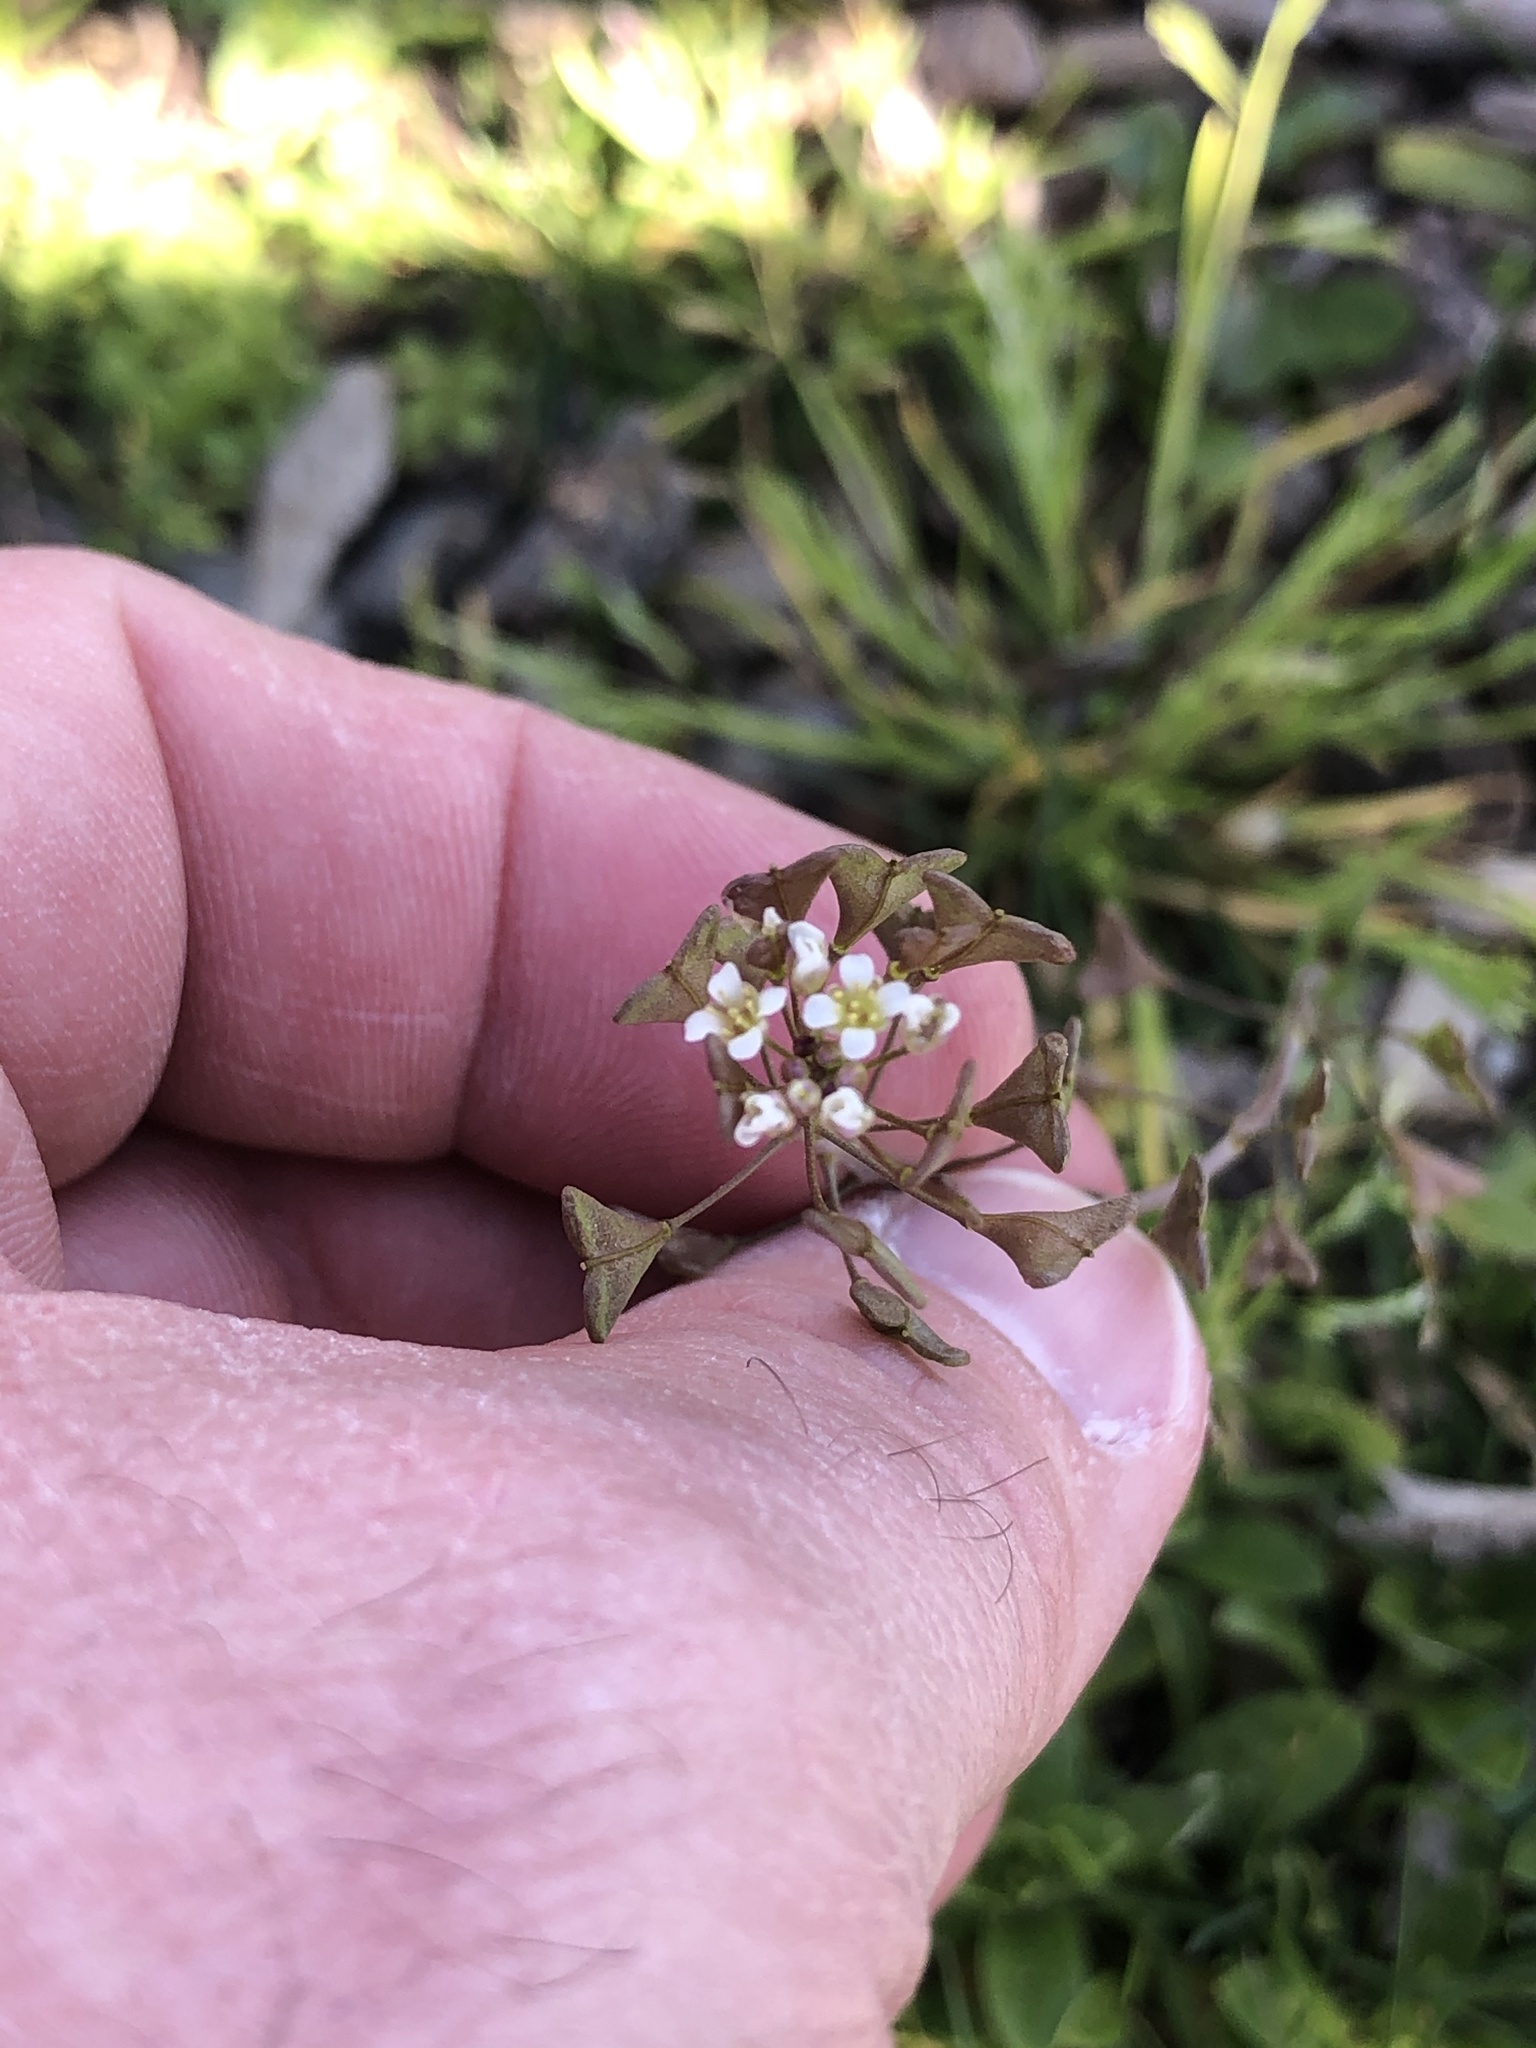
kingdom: Plantae
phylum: Tracheophyta
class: Magnoliopsida
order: Brassicales
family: Brassicaceae
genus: Capsella
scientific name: Capsella bursa-pastoris
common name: Shepherd's purse
